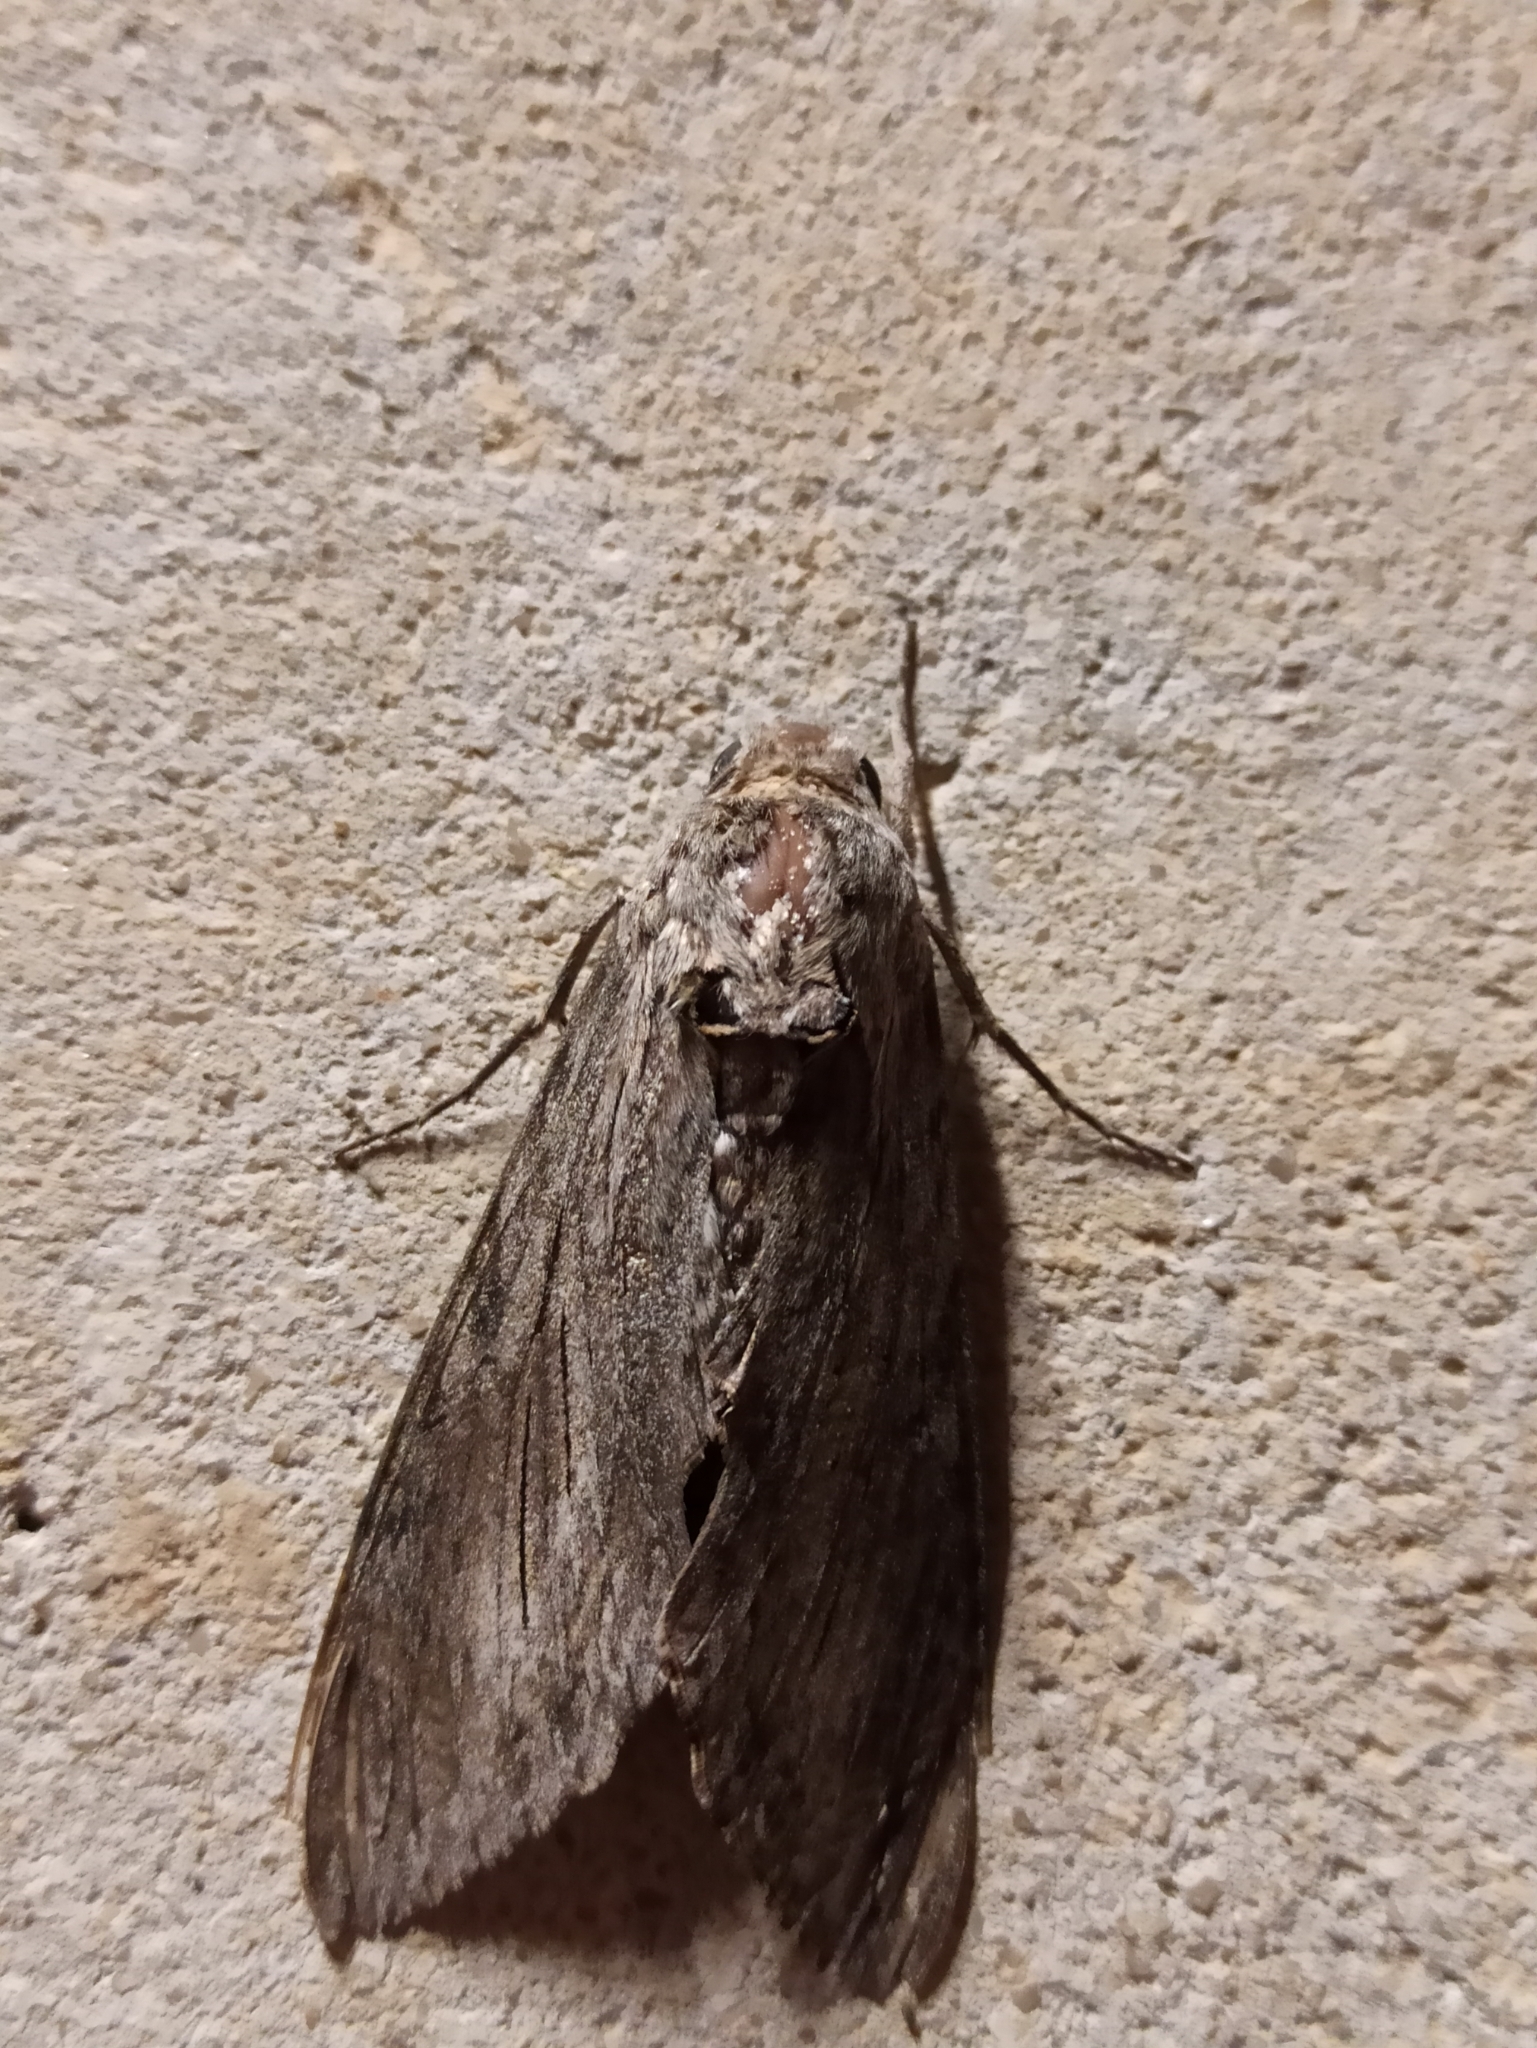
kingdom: Animalia
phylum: Arthropoda
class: Insecta
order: Lepidoptera
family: Sphingidae
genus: Agrius
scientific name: Agrius convolvuli
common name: Convolvulus hawkmoth
